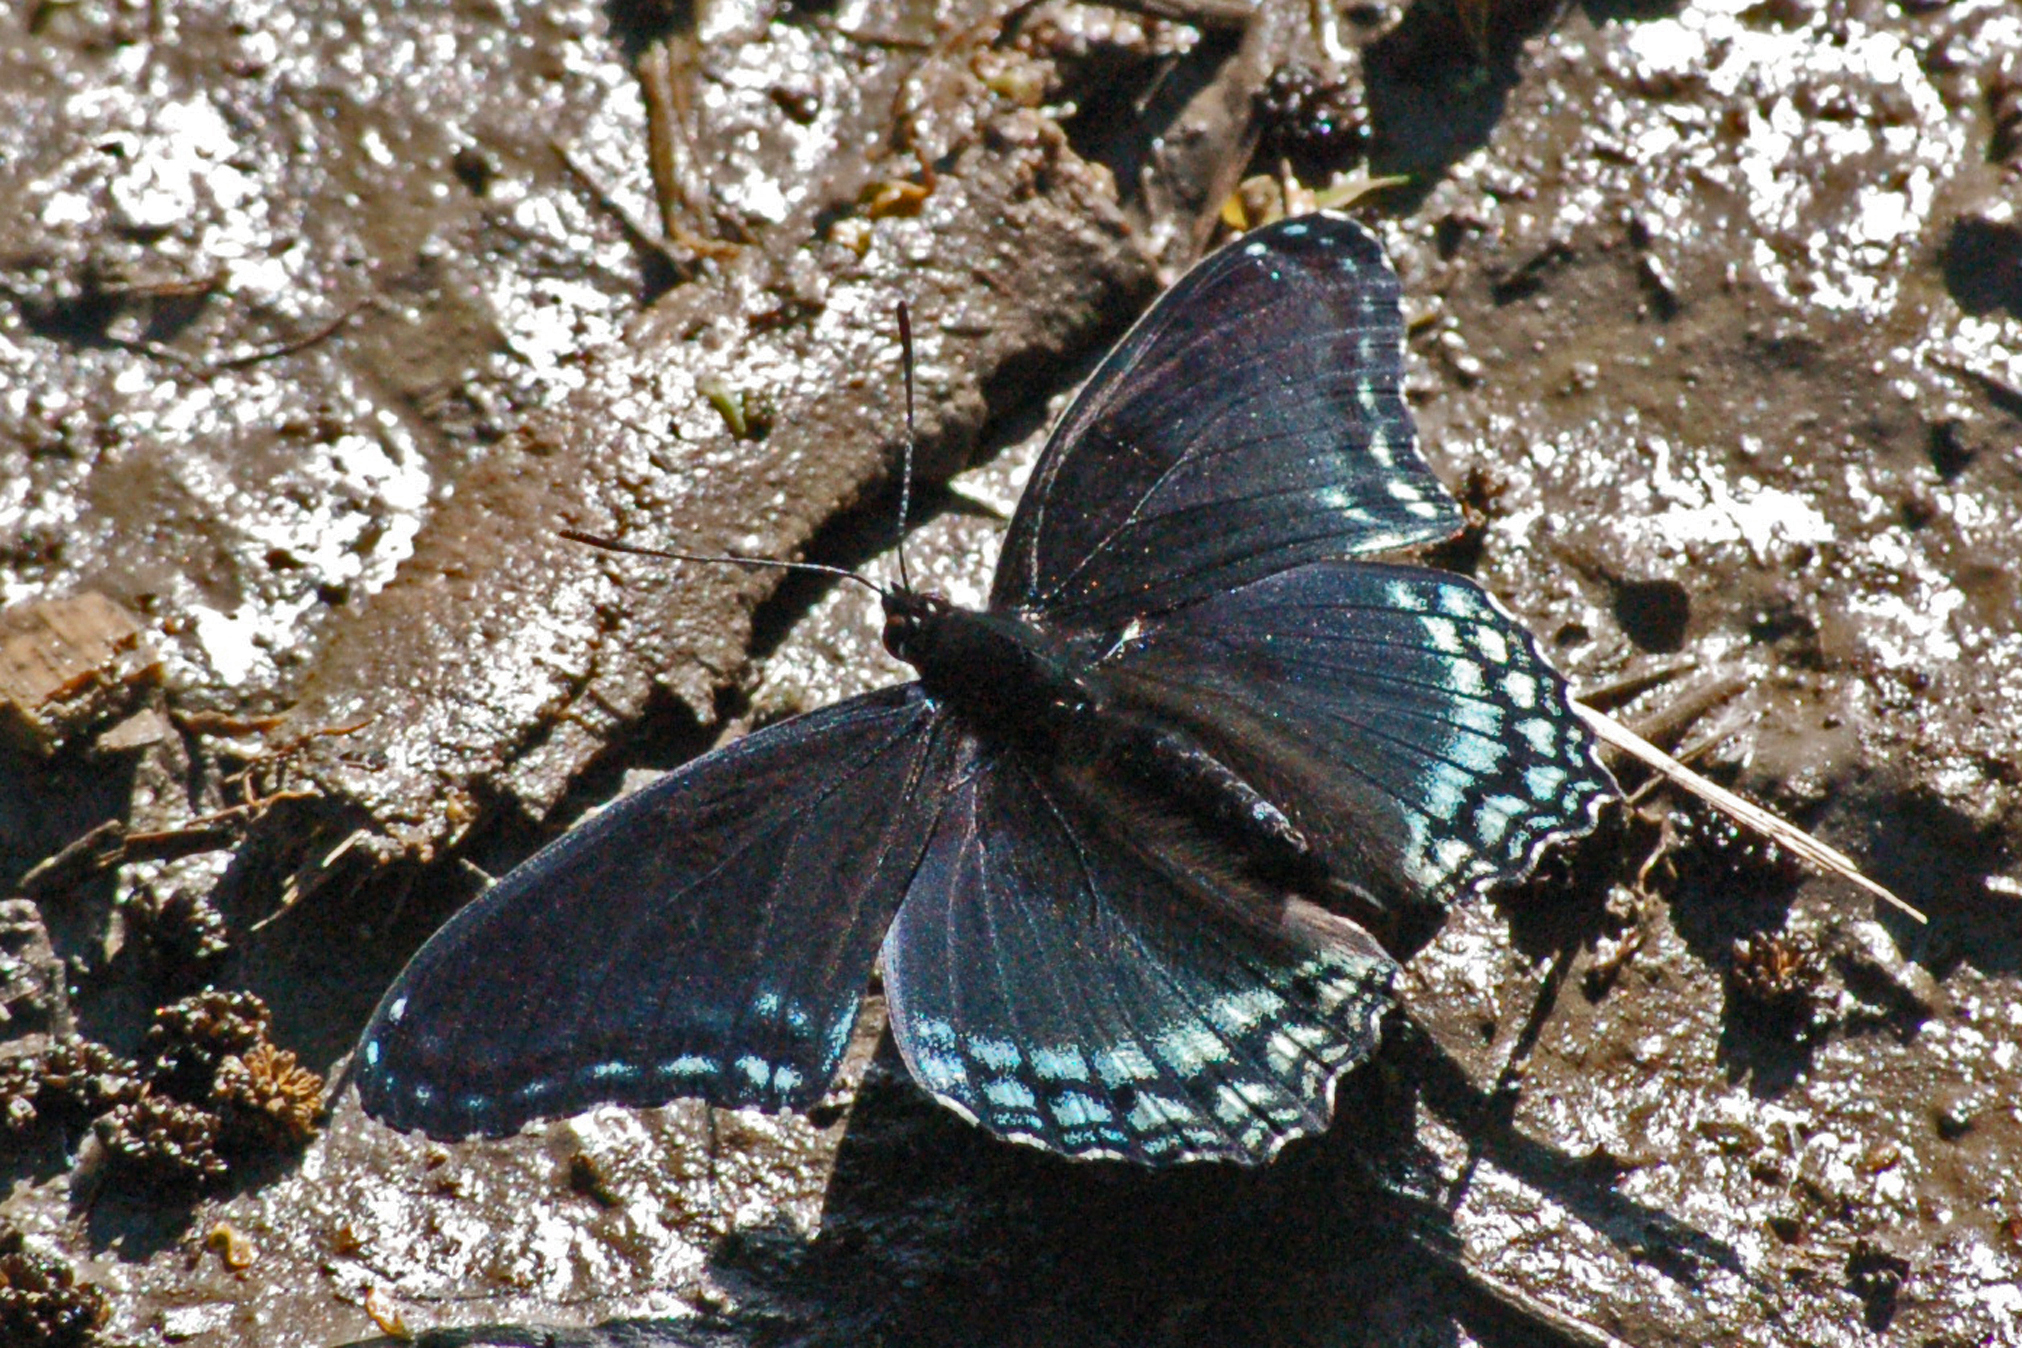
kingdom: Animalia
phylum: Arthropoda
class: Insecta
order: Lepidoptera
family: Nymphalidae
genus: Limenitis
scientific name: Limenitis astyanax
